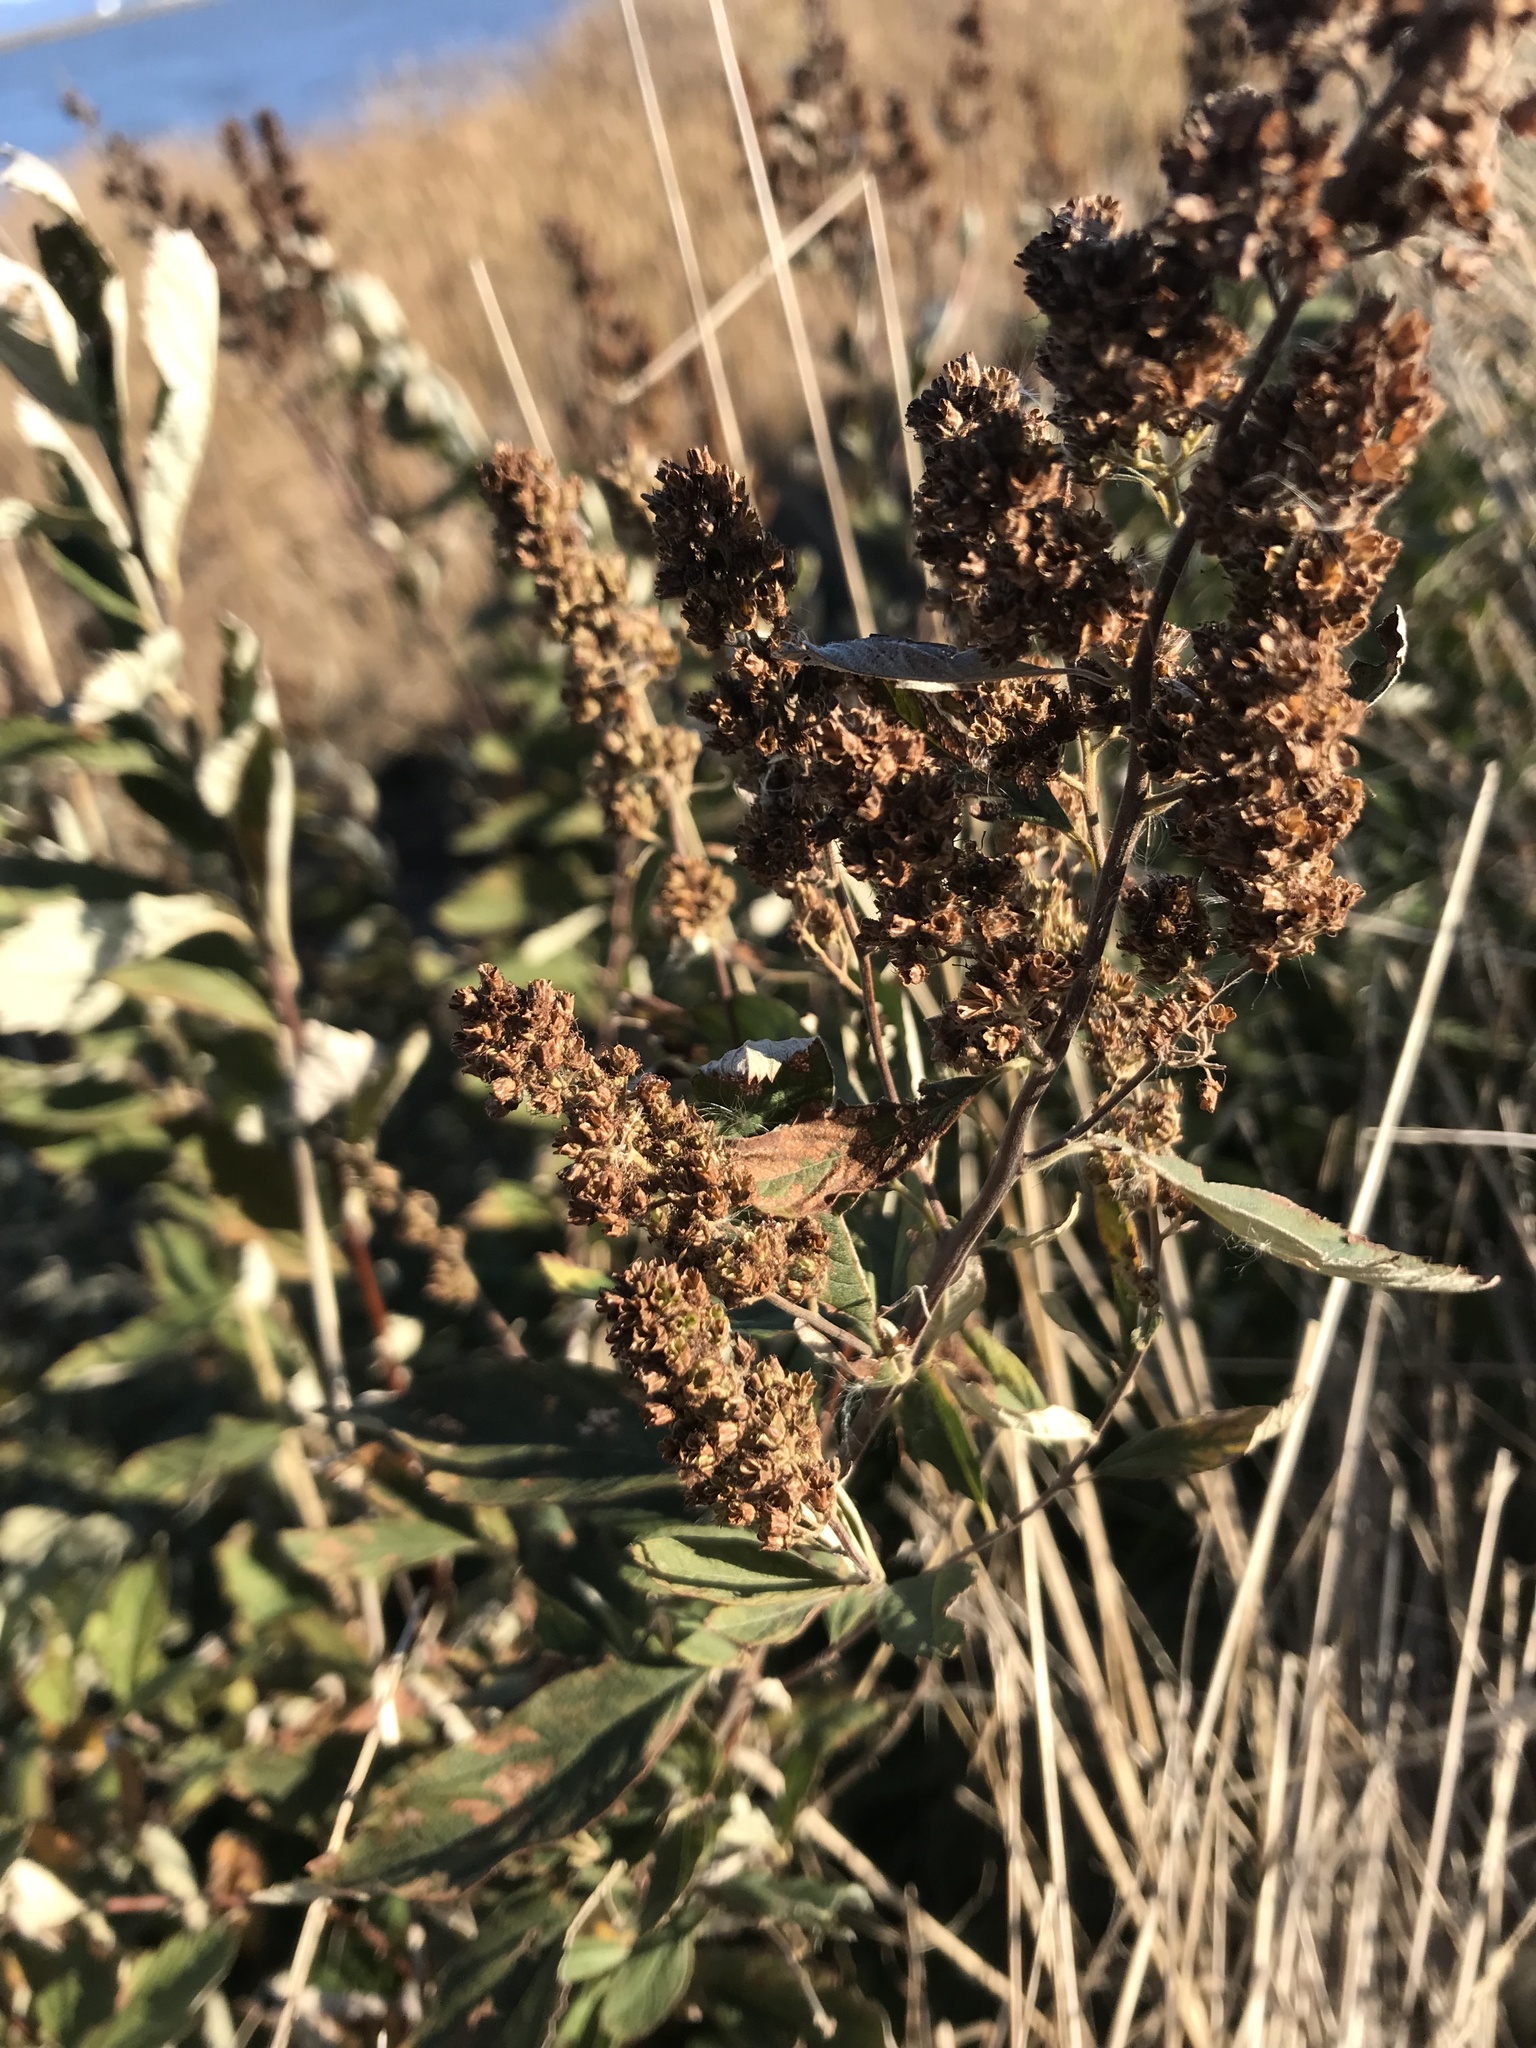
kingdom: Plantae
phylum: Tracheophyta
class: Magnoliopsida
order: Rosales
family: Rosaceae
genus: Spiraea
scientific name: Spiraea douglasii
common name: Steeplebush
